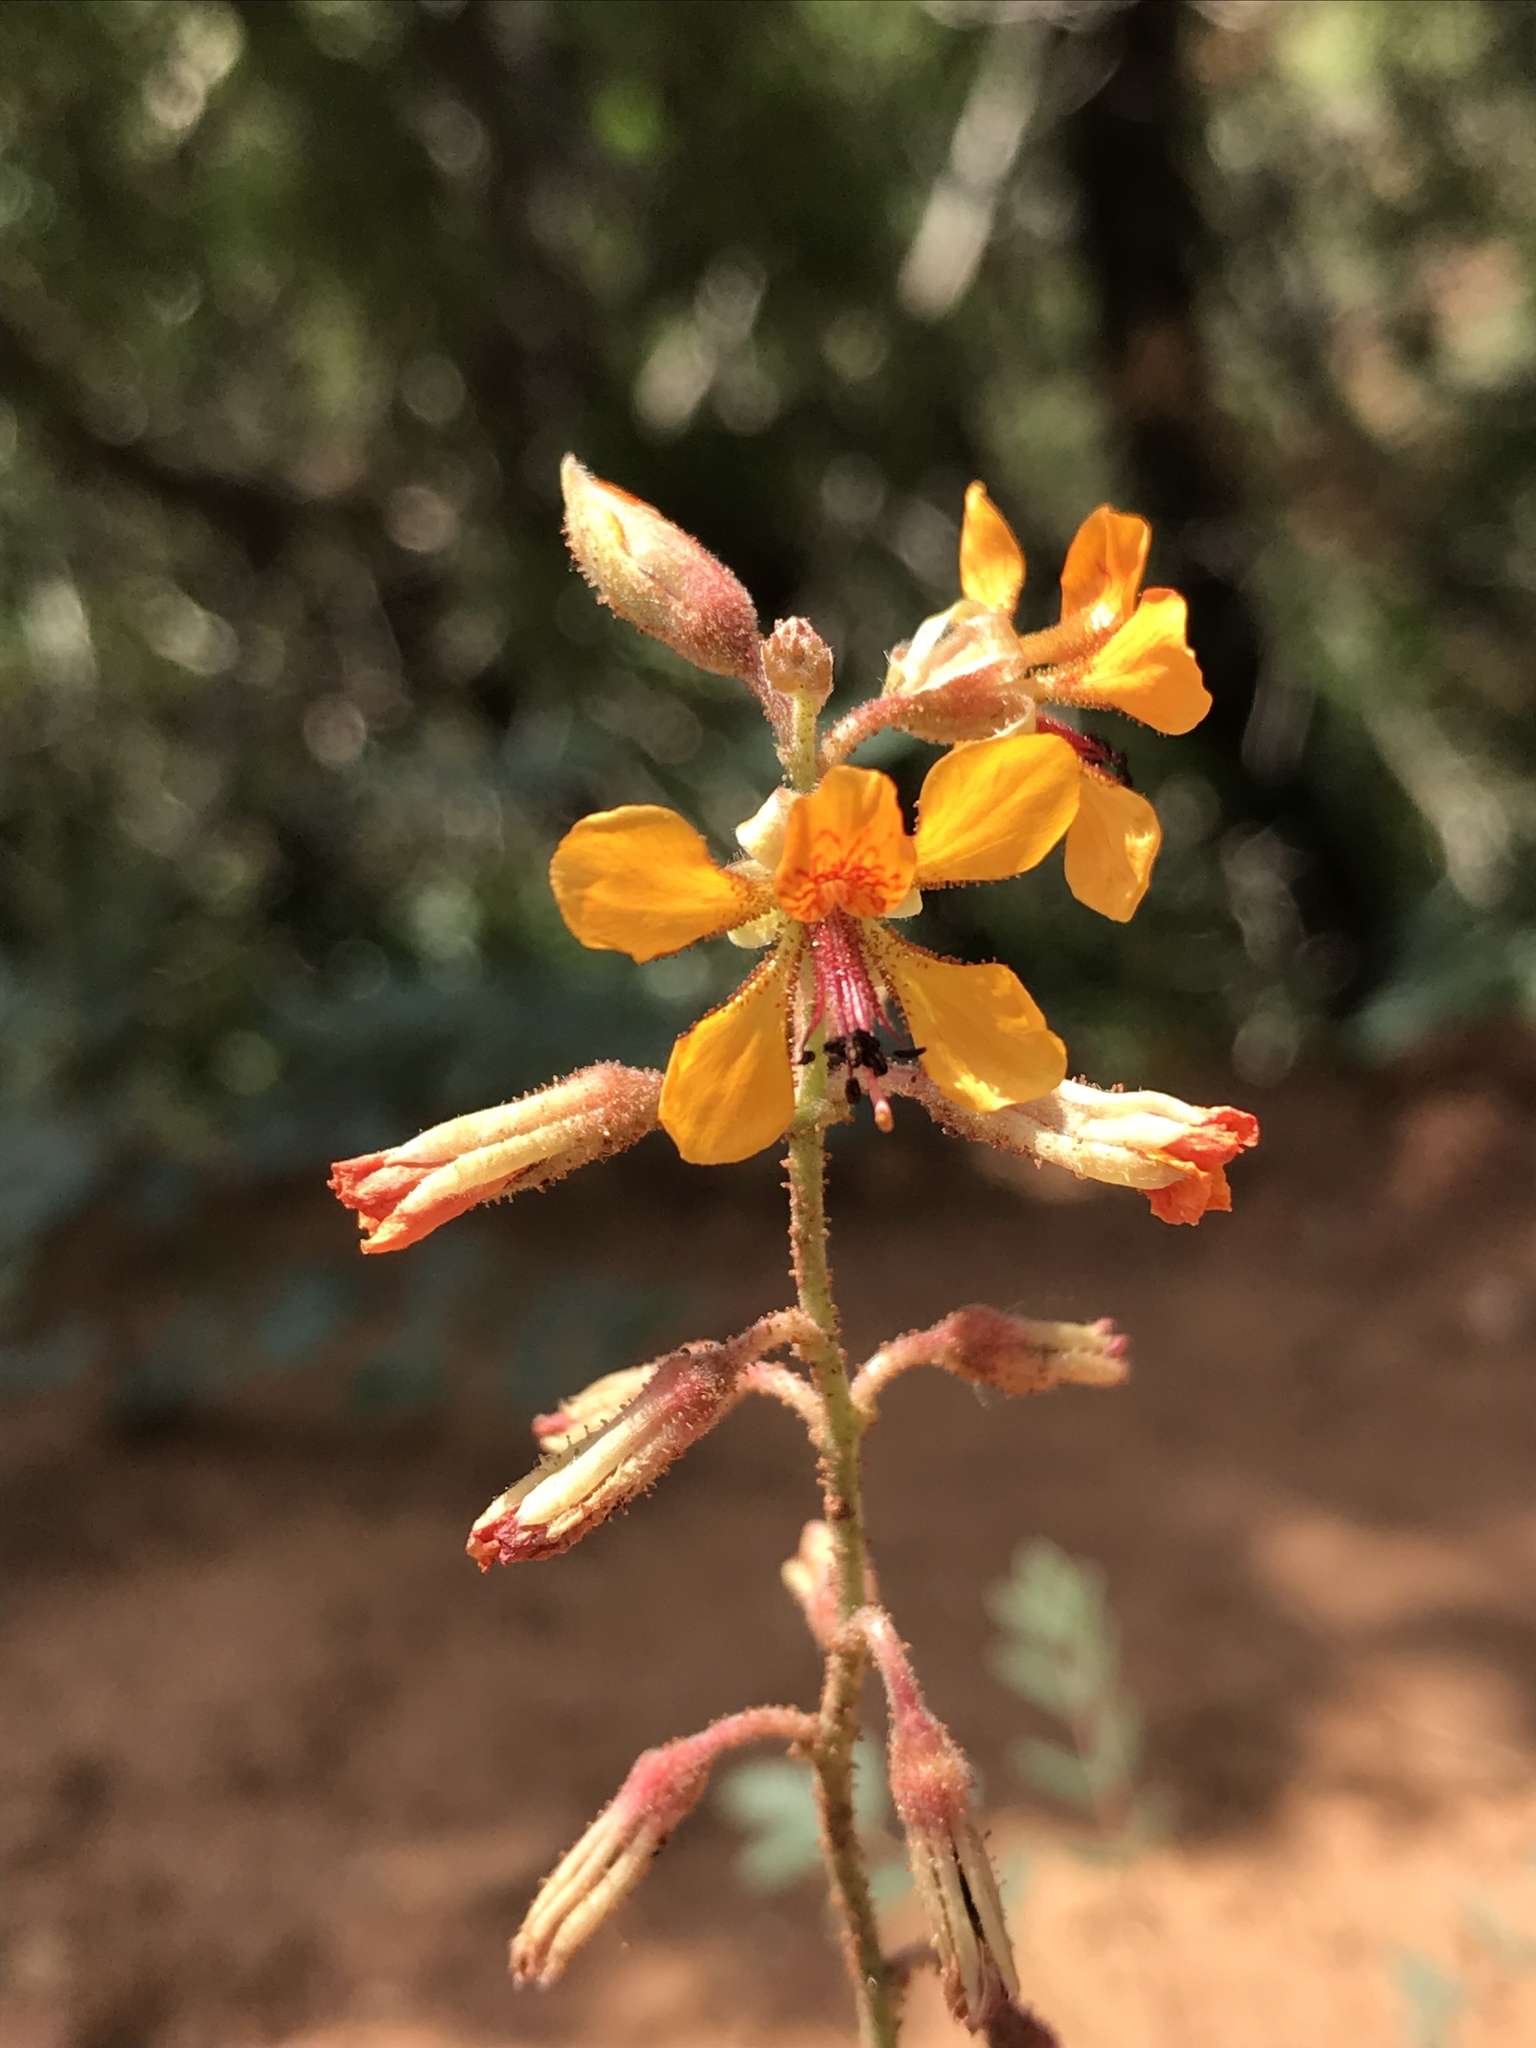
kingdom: Plantae
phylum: Tracheophyta
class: Magnoliopsida
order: Fabales
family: Fabaceae
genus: Hoffmannseggia
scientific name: Hoffmannseggia glauca
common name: Pignut
